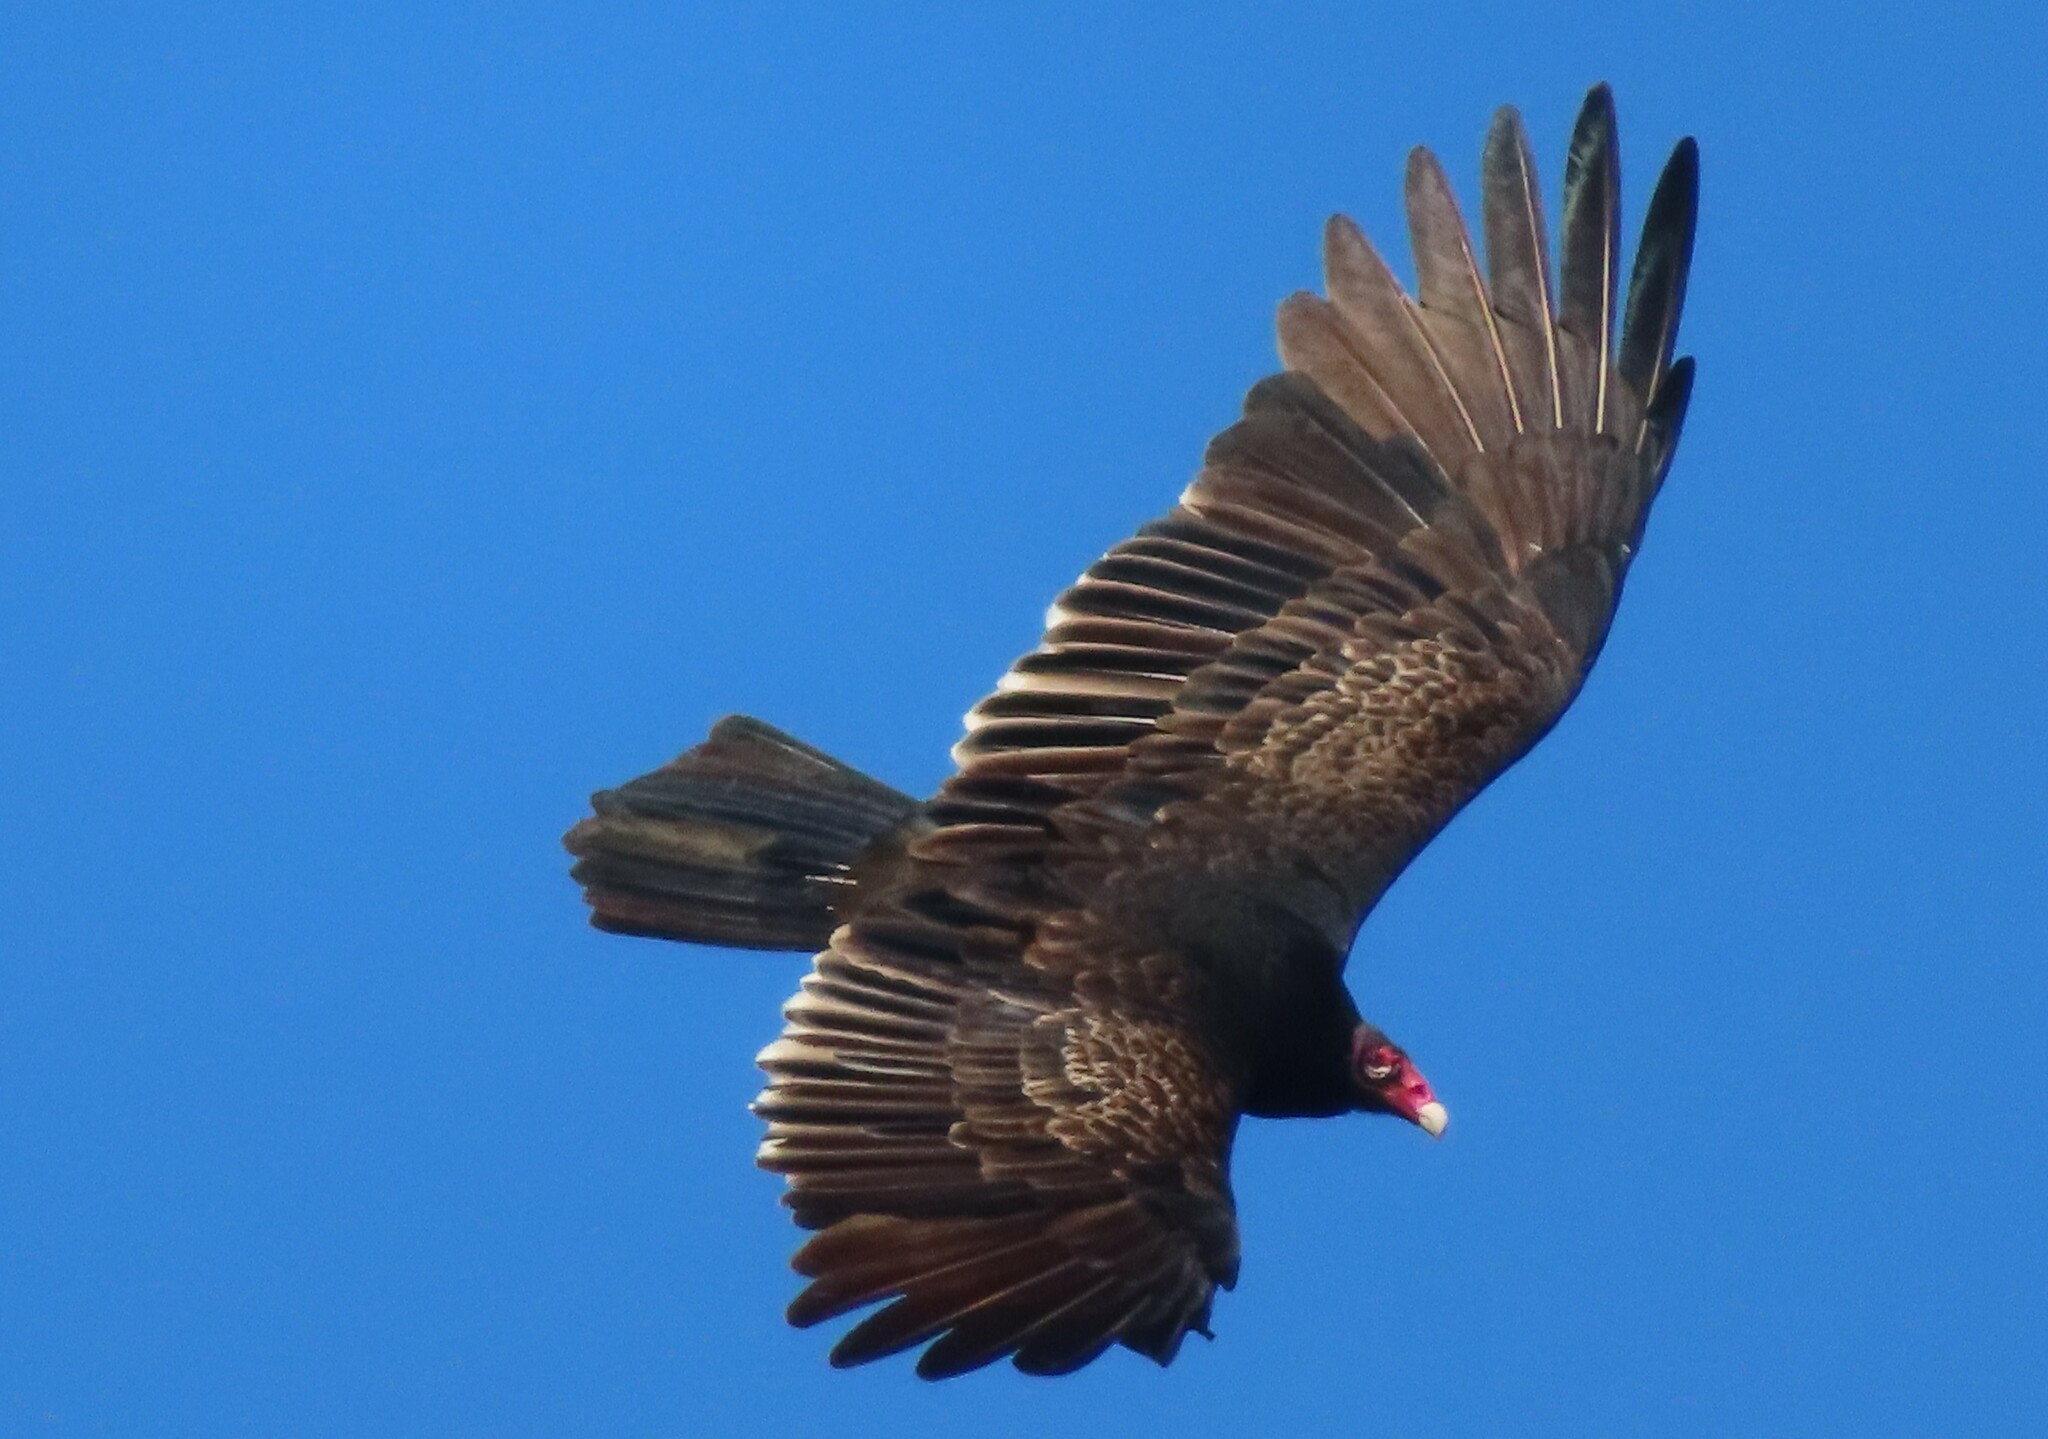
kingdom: Animalia
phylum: Chordata
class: Aves
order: Accipitriformes
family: Cathartidae
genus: Cathartes
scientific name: Cathartes aura
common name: Turkey vulture
